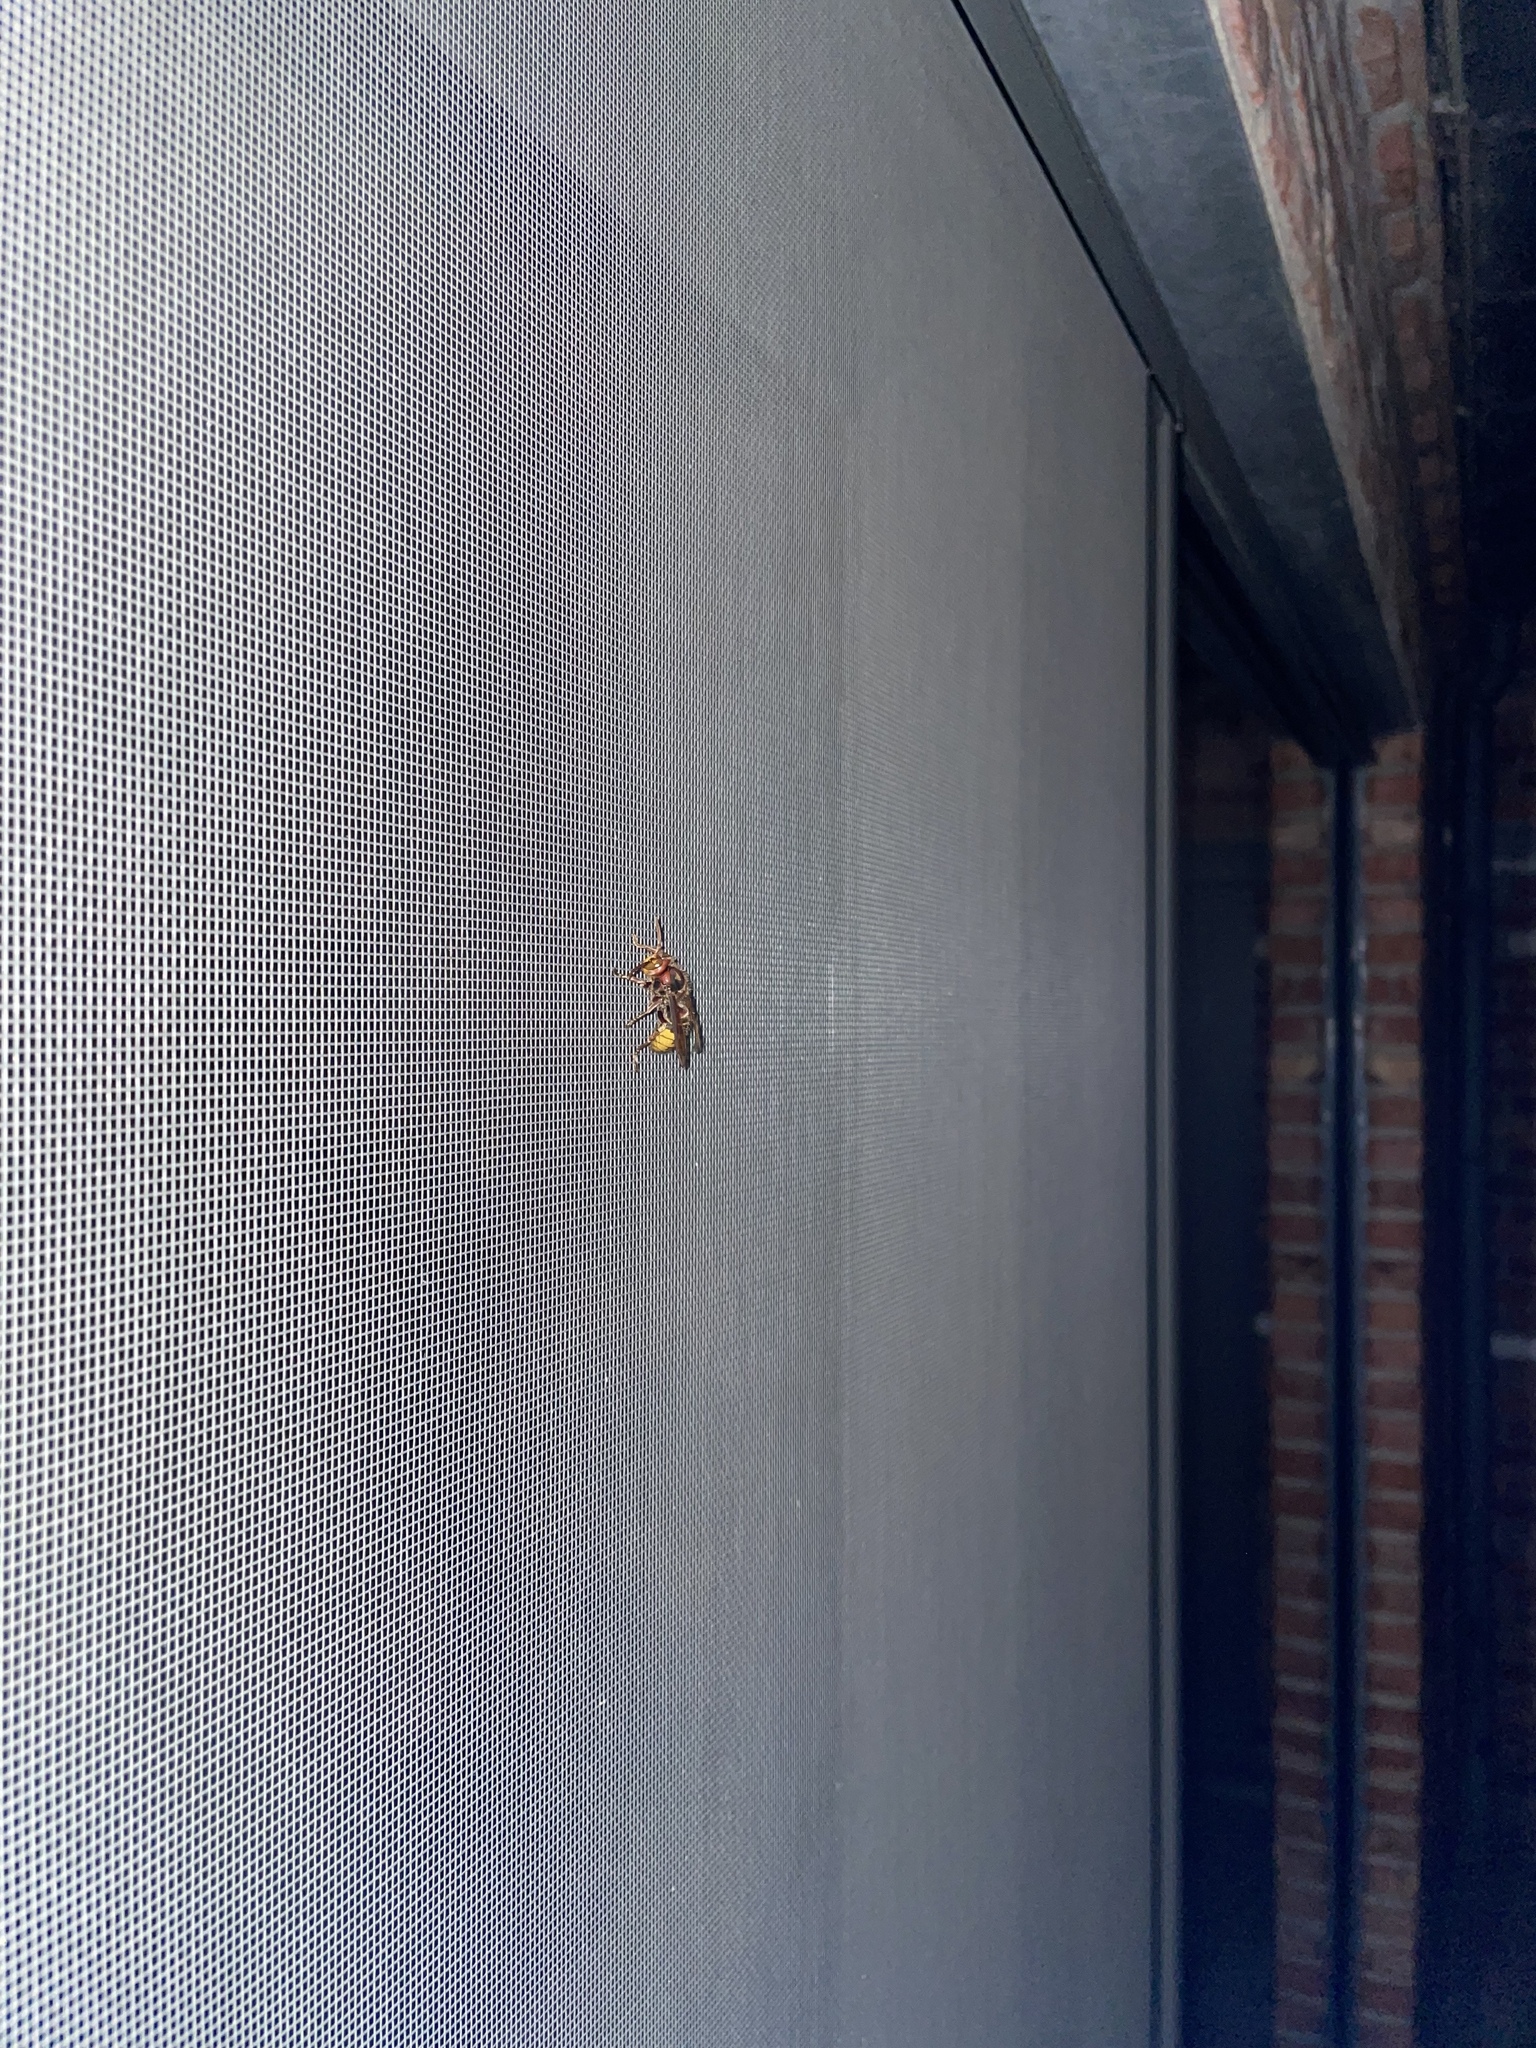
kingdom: Animalia
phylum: Arthropoda
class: Insecta
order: Hymenoptera
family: Vespidae
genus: Vespa
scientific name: Vespa crabro
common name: Hornet
